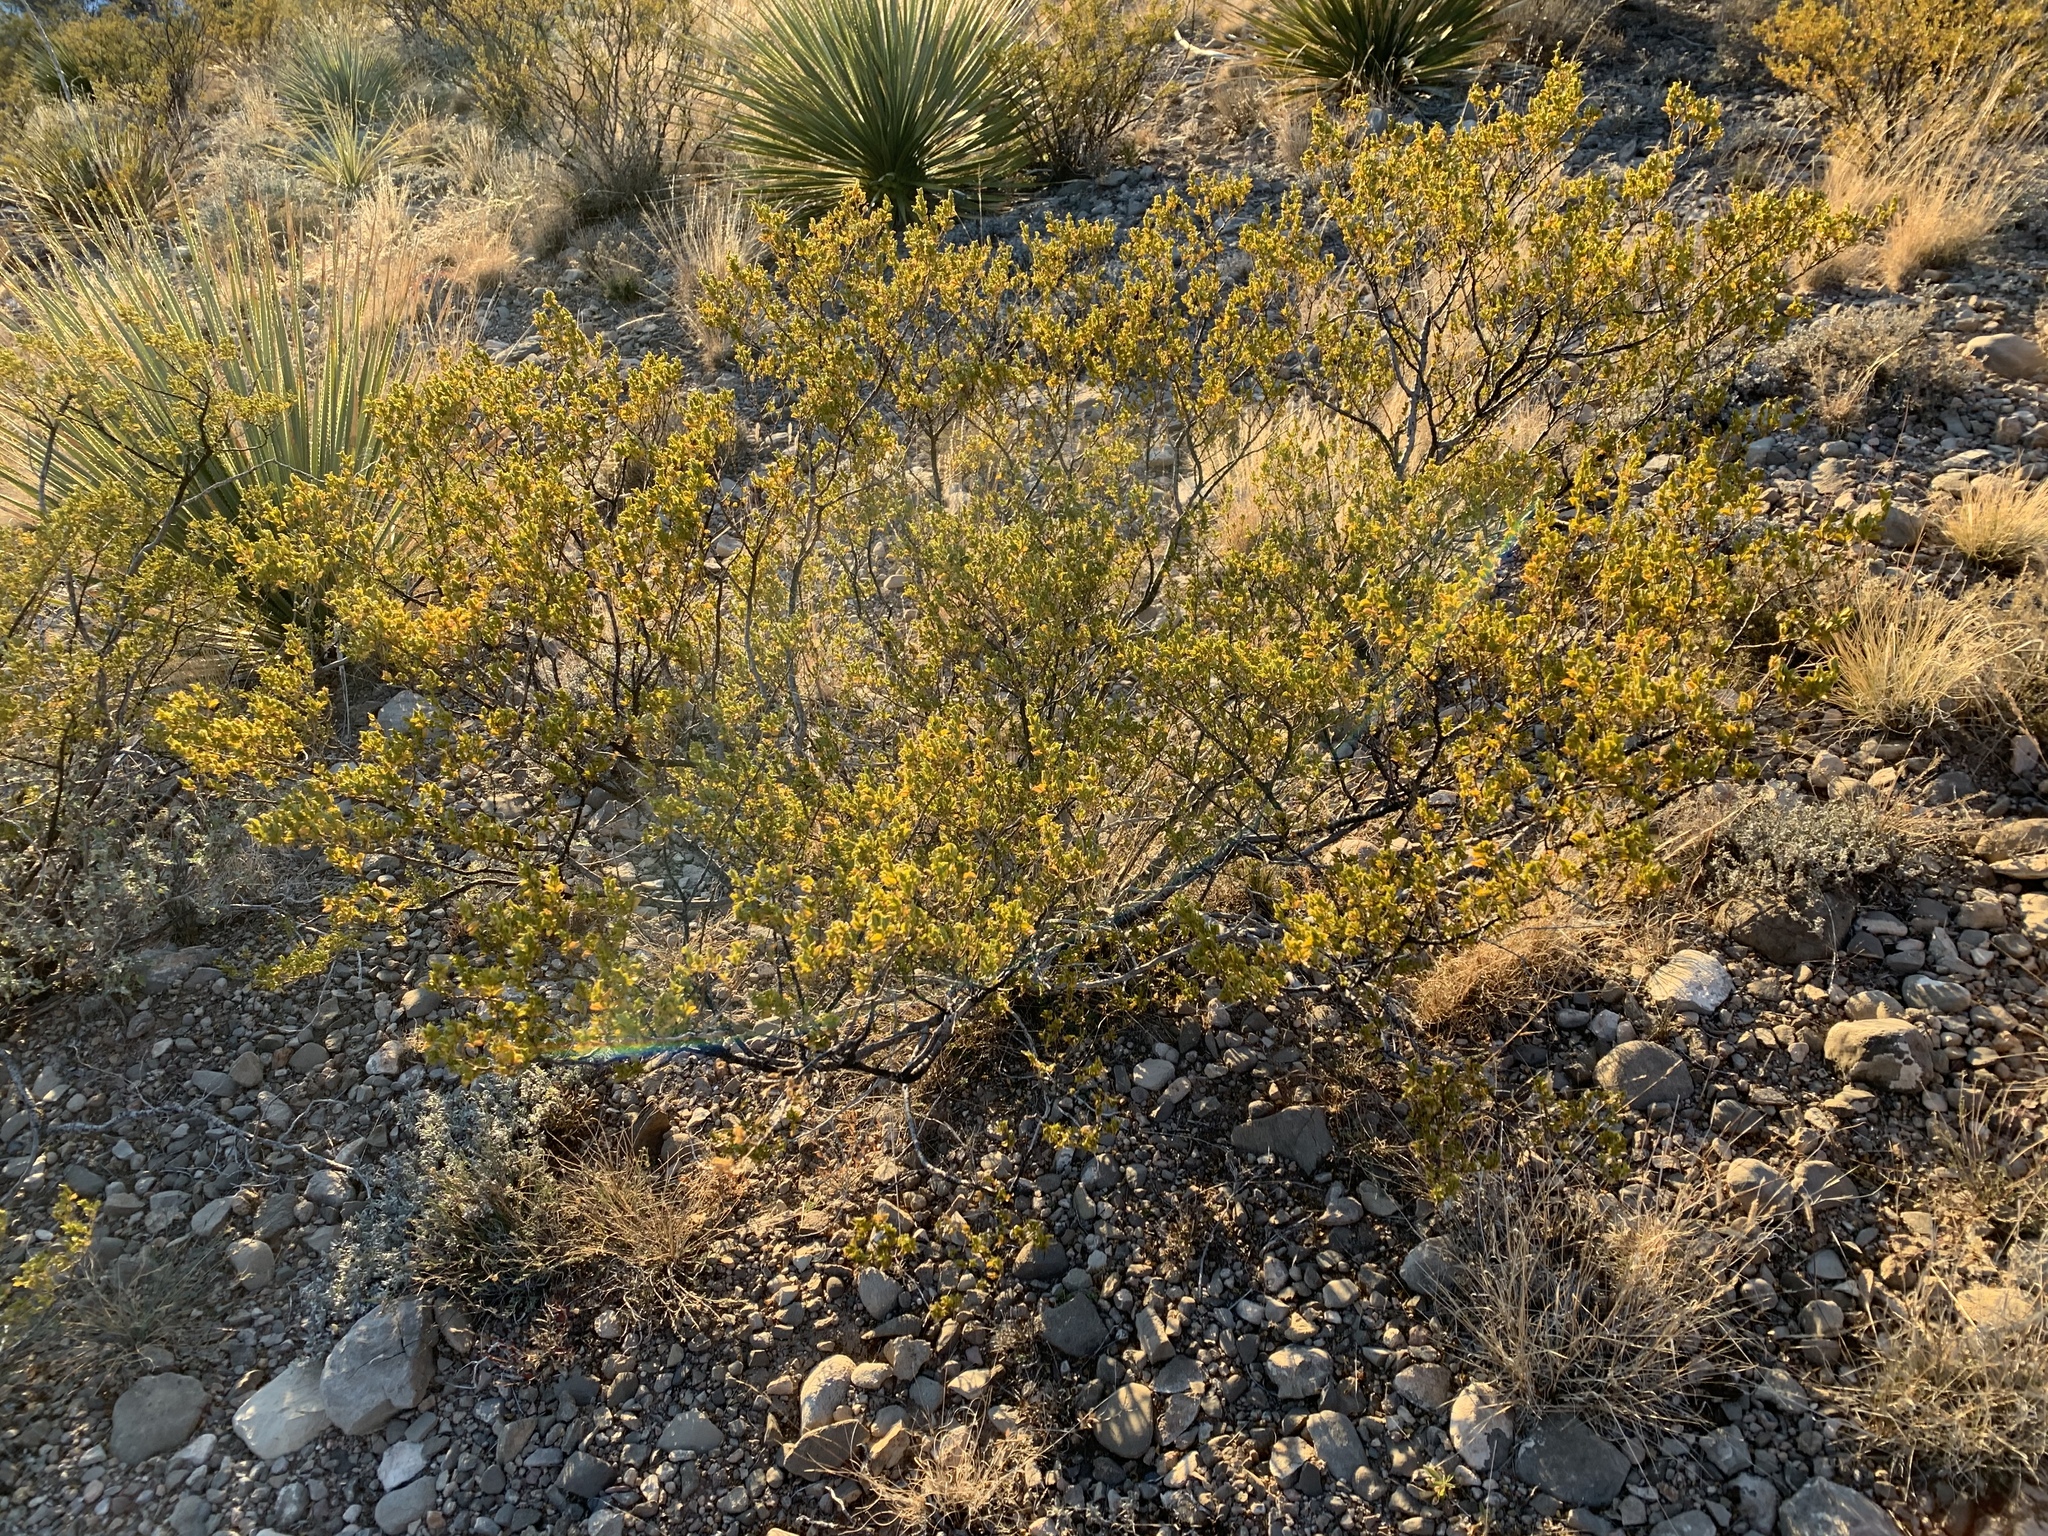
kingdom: Plantae
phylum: Tracheophyta
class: Magnoliopsida
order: Zygophyllales
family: Zygophyllaceae
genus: Larrea
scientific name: Larrea tridentata
